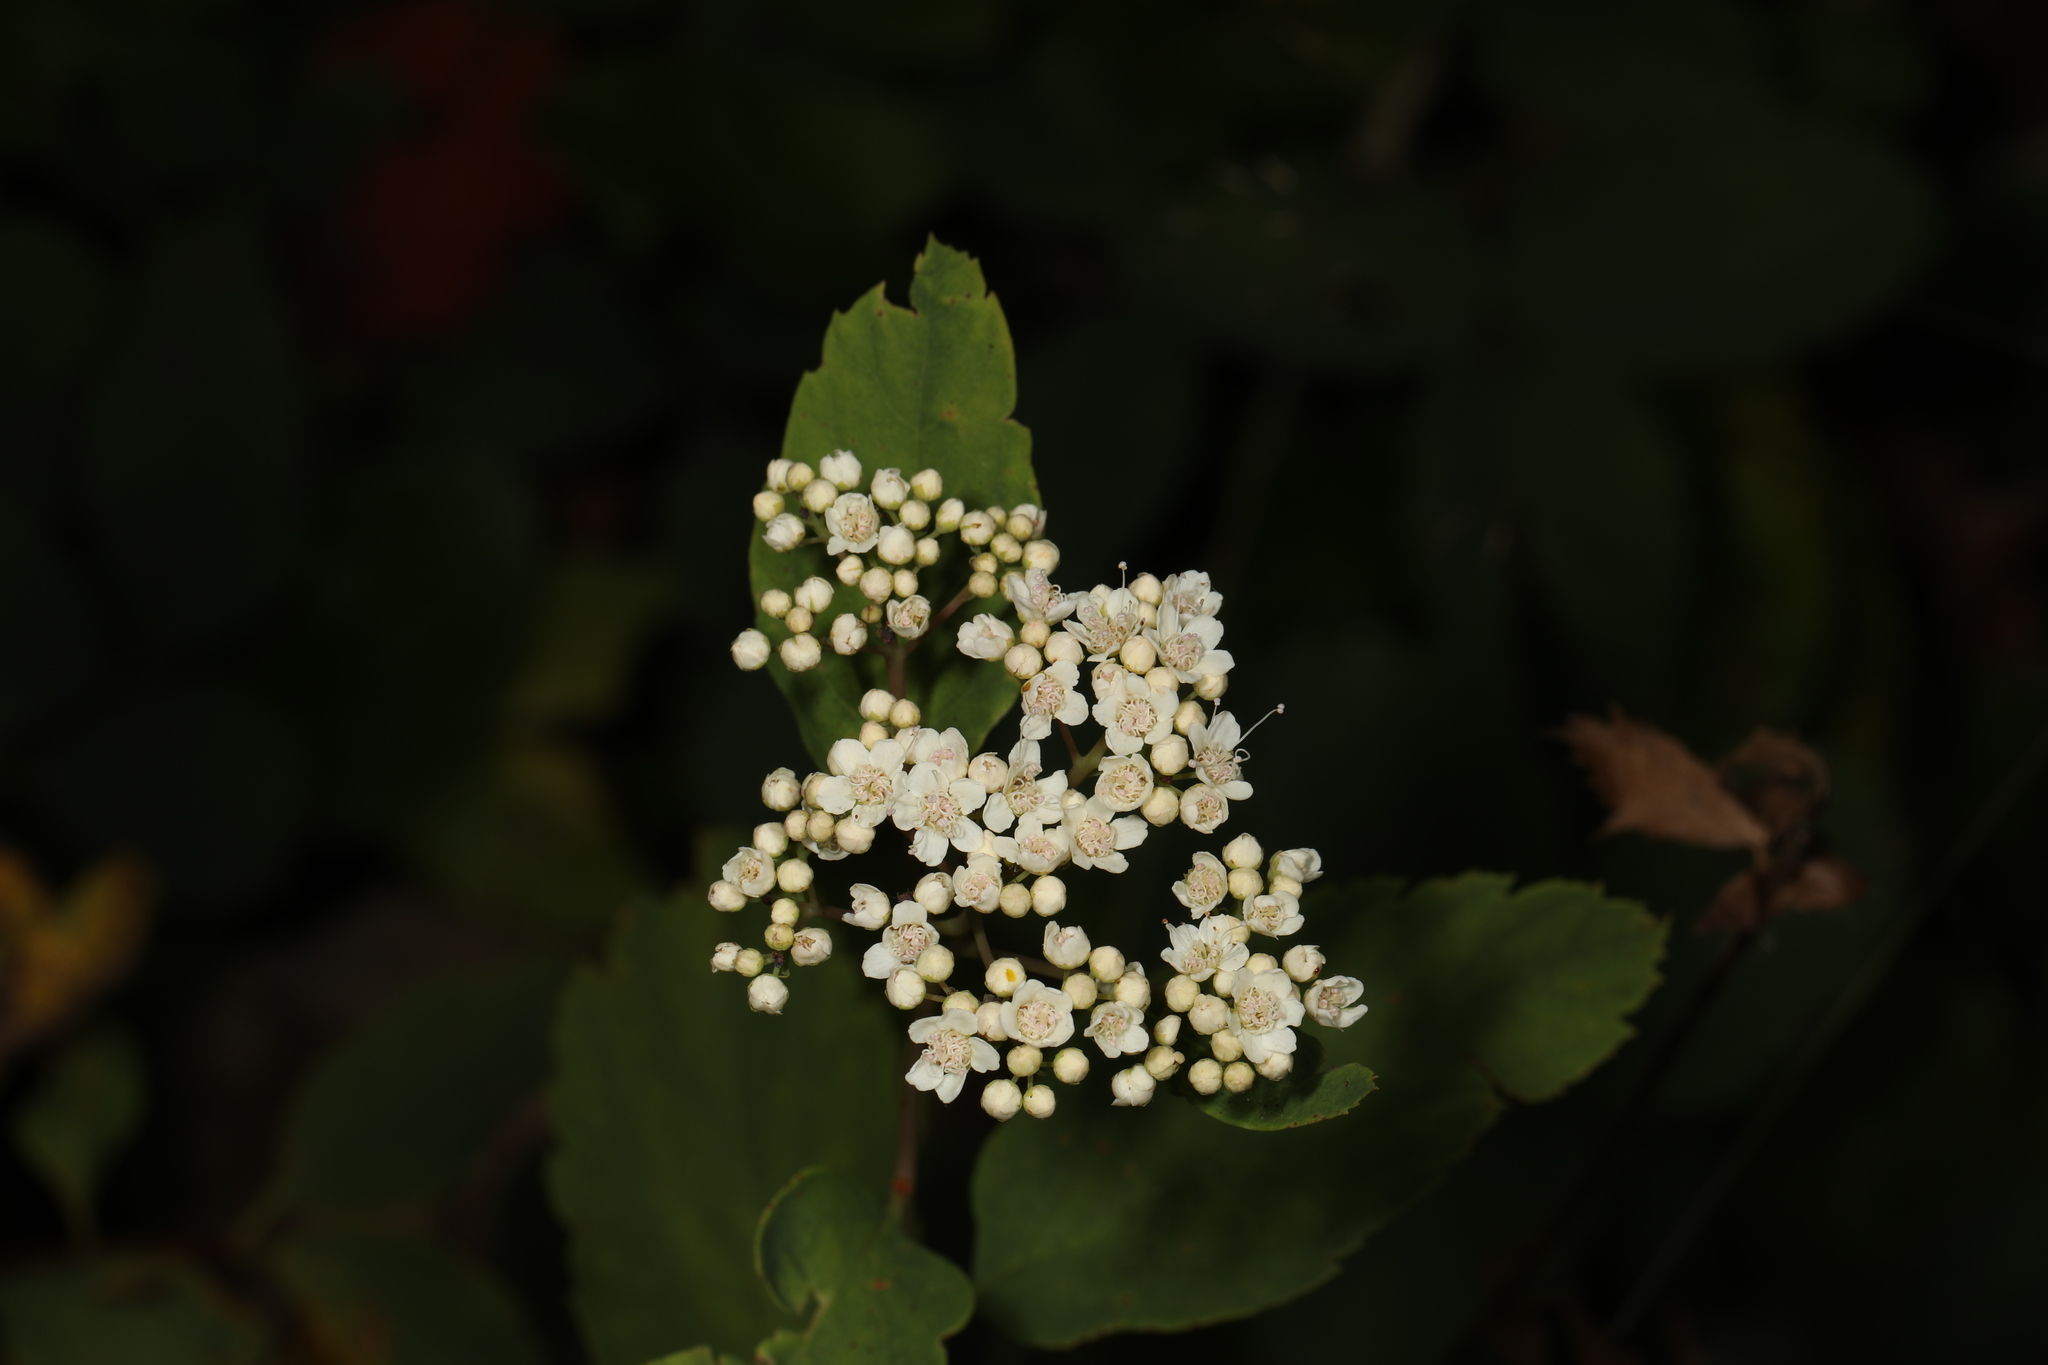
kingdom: Plantae
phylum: Tracheophyta
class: Magnoliopsida
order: Rosales
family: Rosaceae
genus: Spiraea
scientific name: Spiraea lucida
